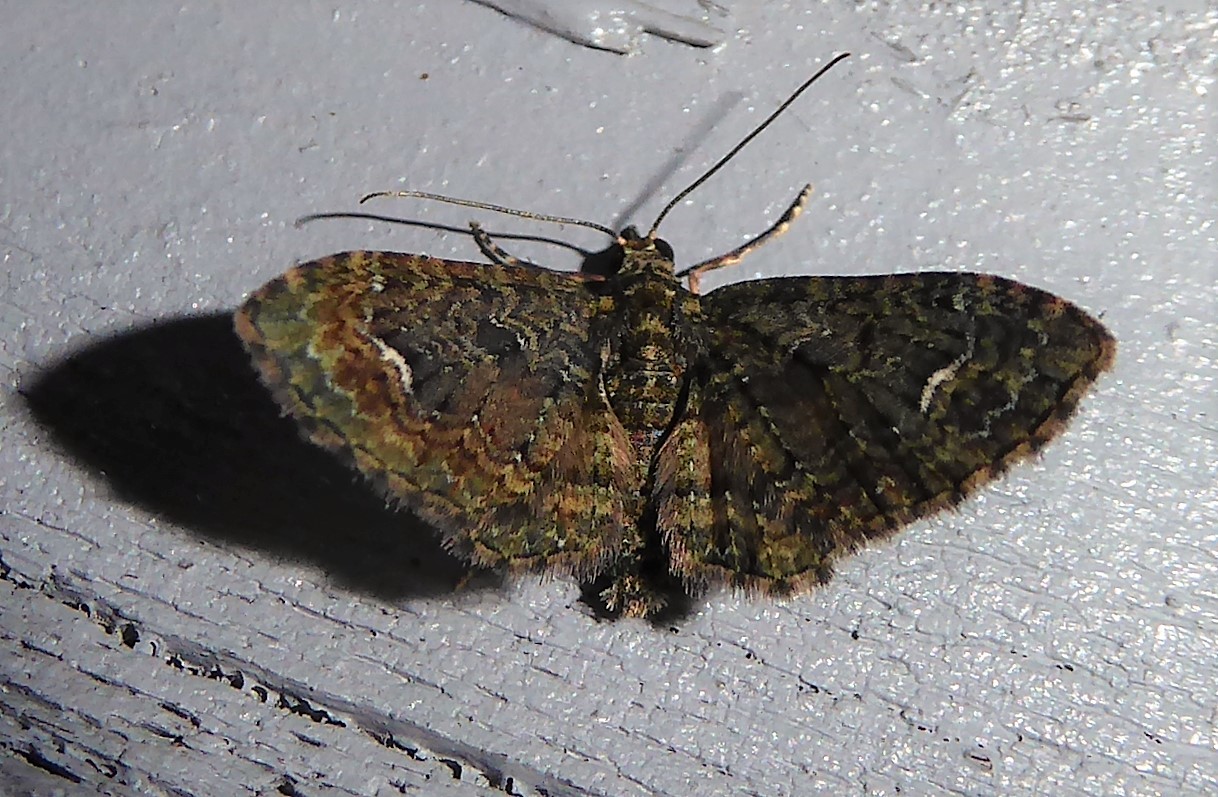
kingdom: Animalia
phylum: Arthropoda
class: Insecta
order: Lepidoptera
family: Geometridae
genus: Pasiphilodes
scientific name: Pasiphilodes testulata
